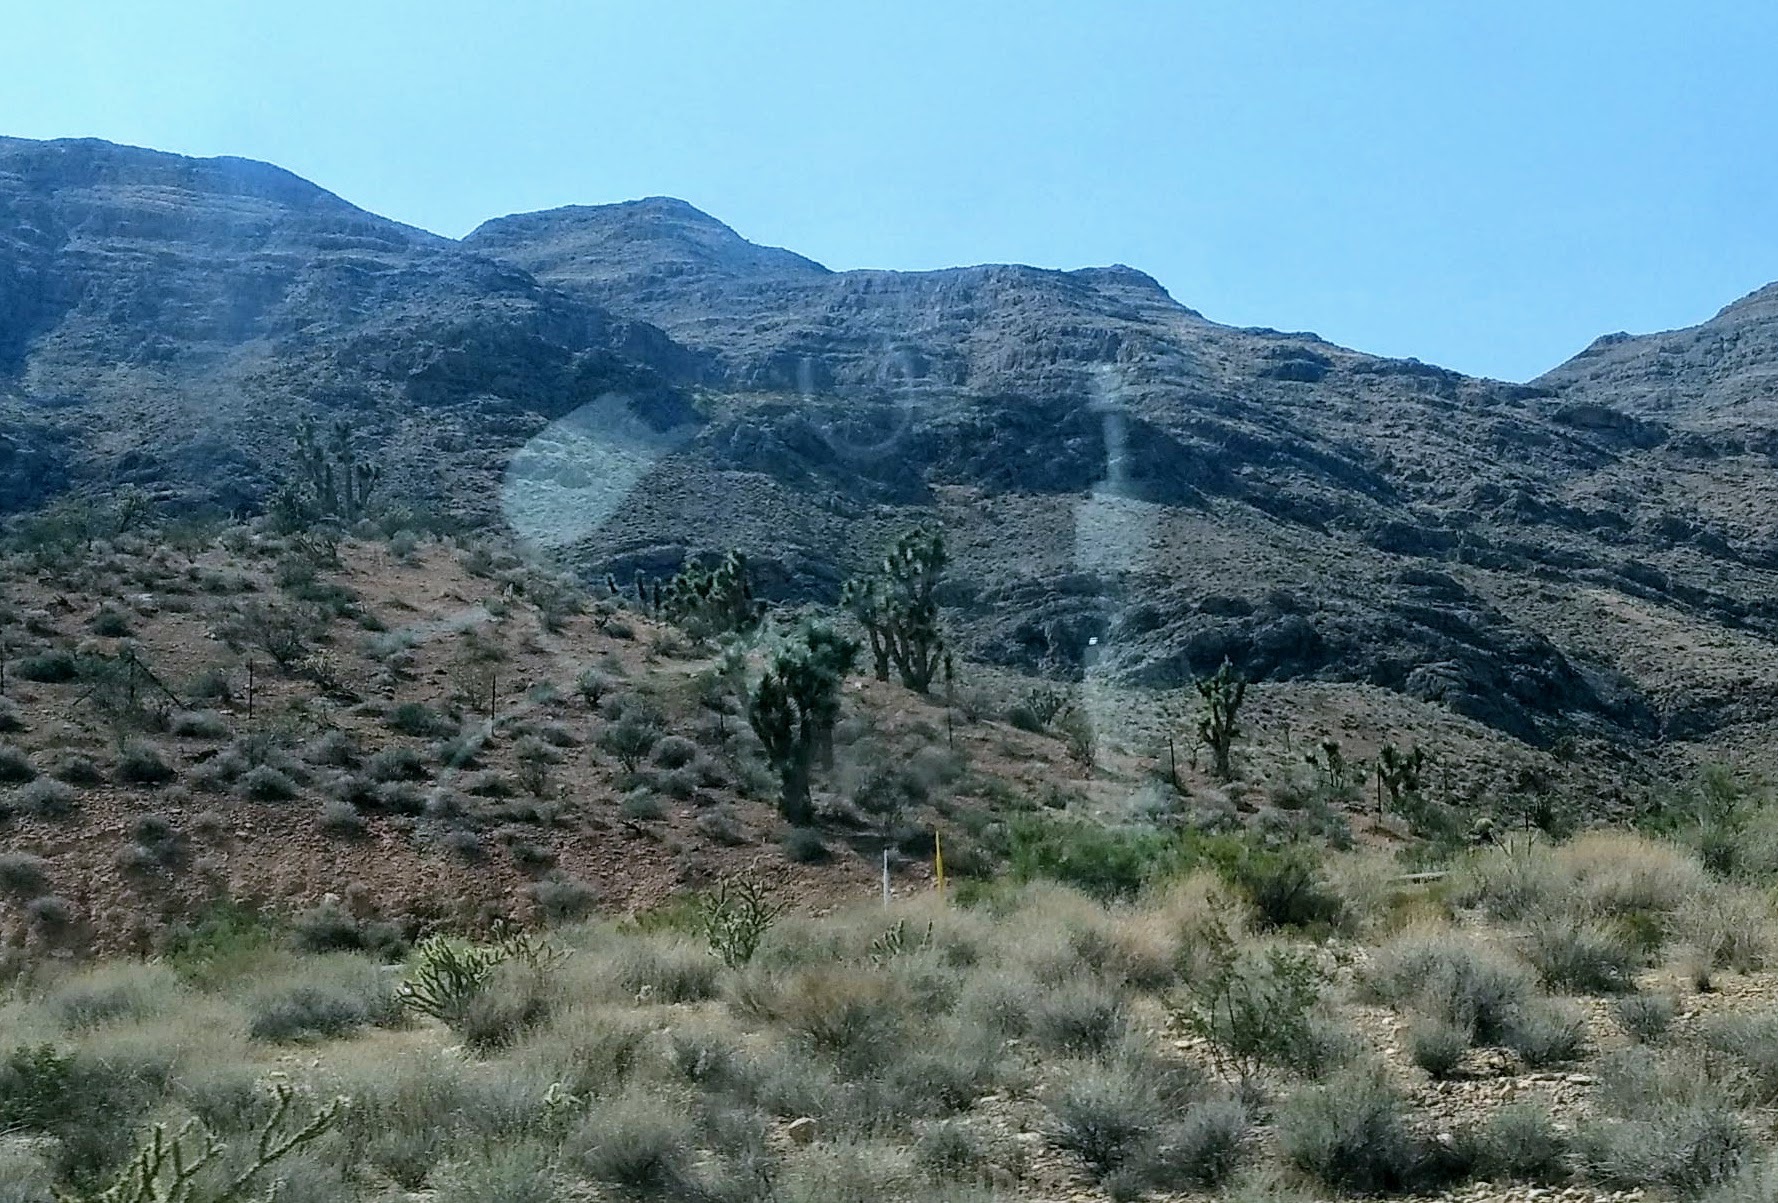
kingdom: Plantae
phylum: Tracheophyta
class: Liliopsida
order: Asparagales
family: Asparagaceae
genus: Yucca
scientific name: Yucca brevifolia
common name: Joshua tree
